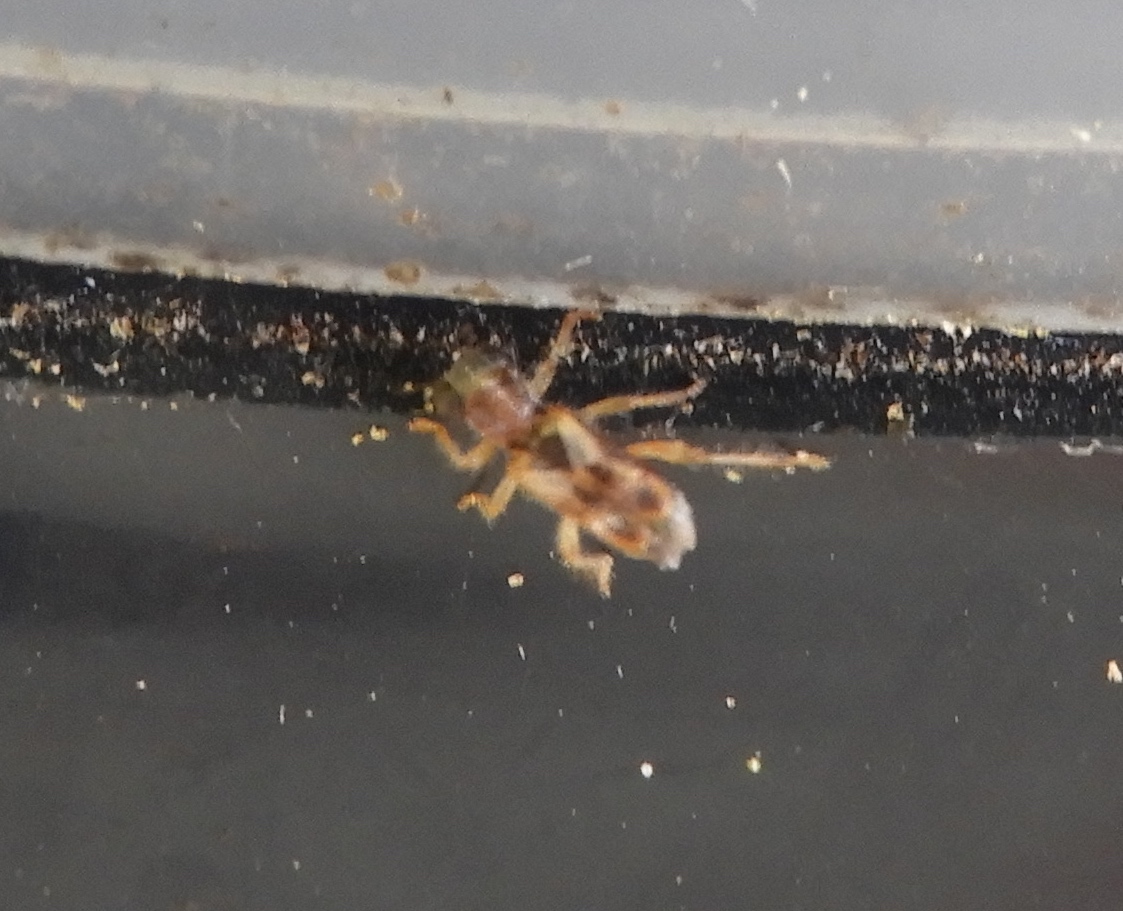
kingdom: Animalia
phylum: Arthropoda
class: Insecta
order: Coleoptera
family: Cleridae
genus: Phyllobaenus
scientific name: Phyllobaenus
